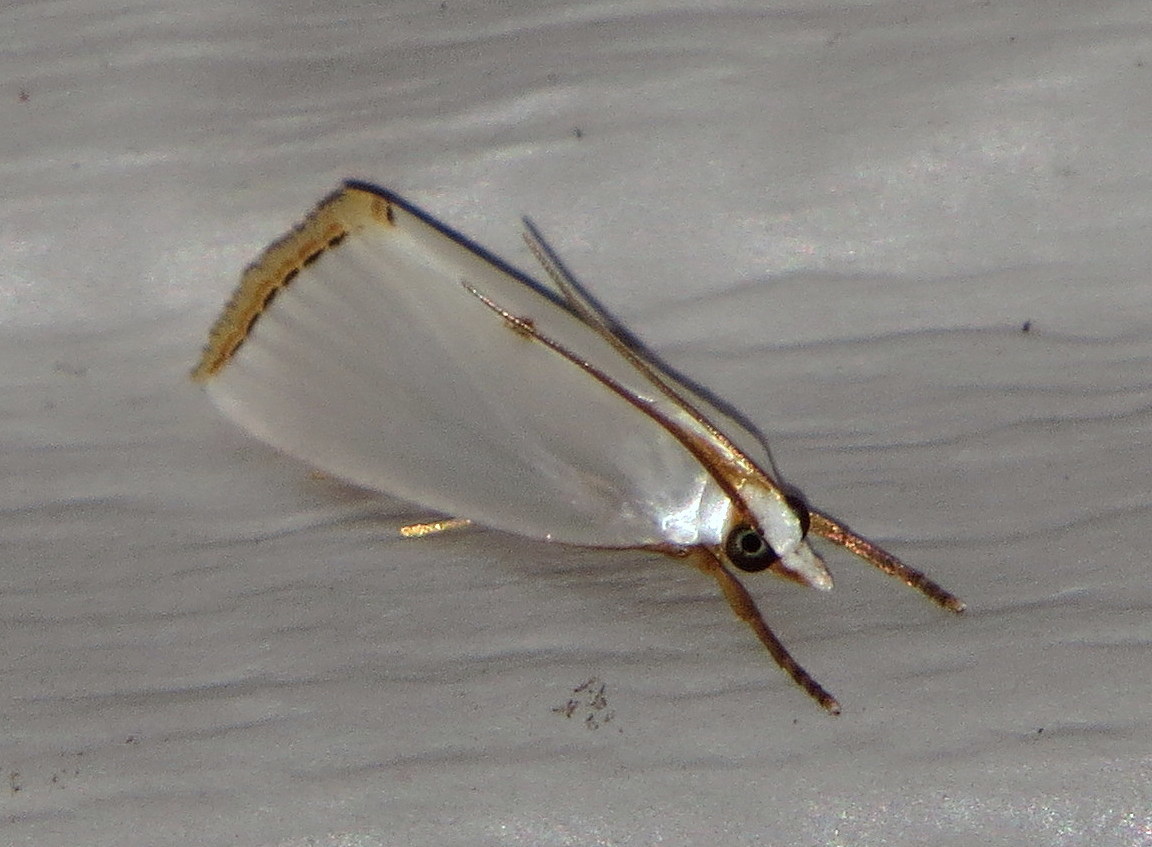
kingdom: Animalia
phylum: Arthropoda
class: Insecta
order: Lepidoptera
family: Crambidae
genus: Argyria
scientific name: Argyria nivalis
